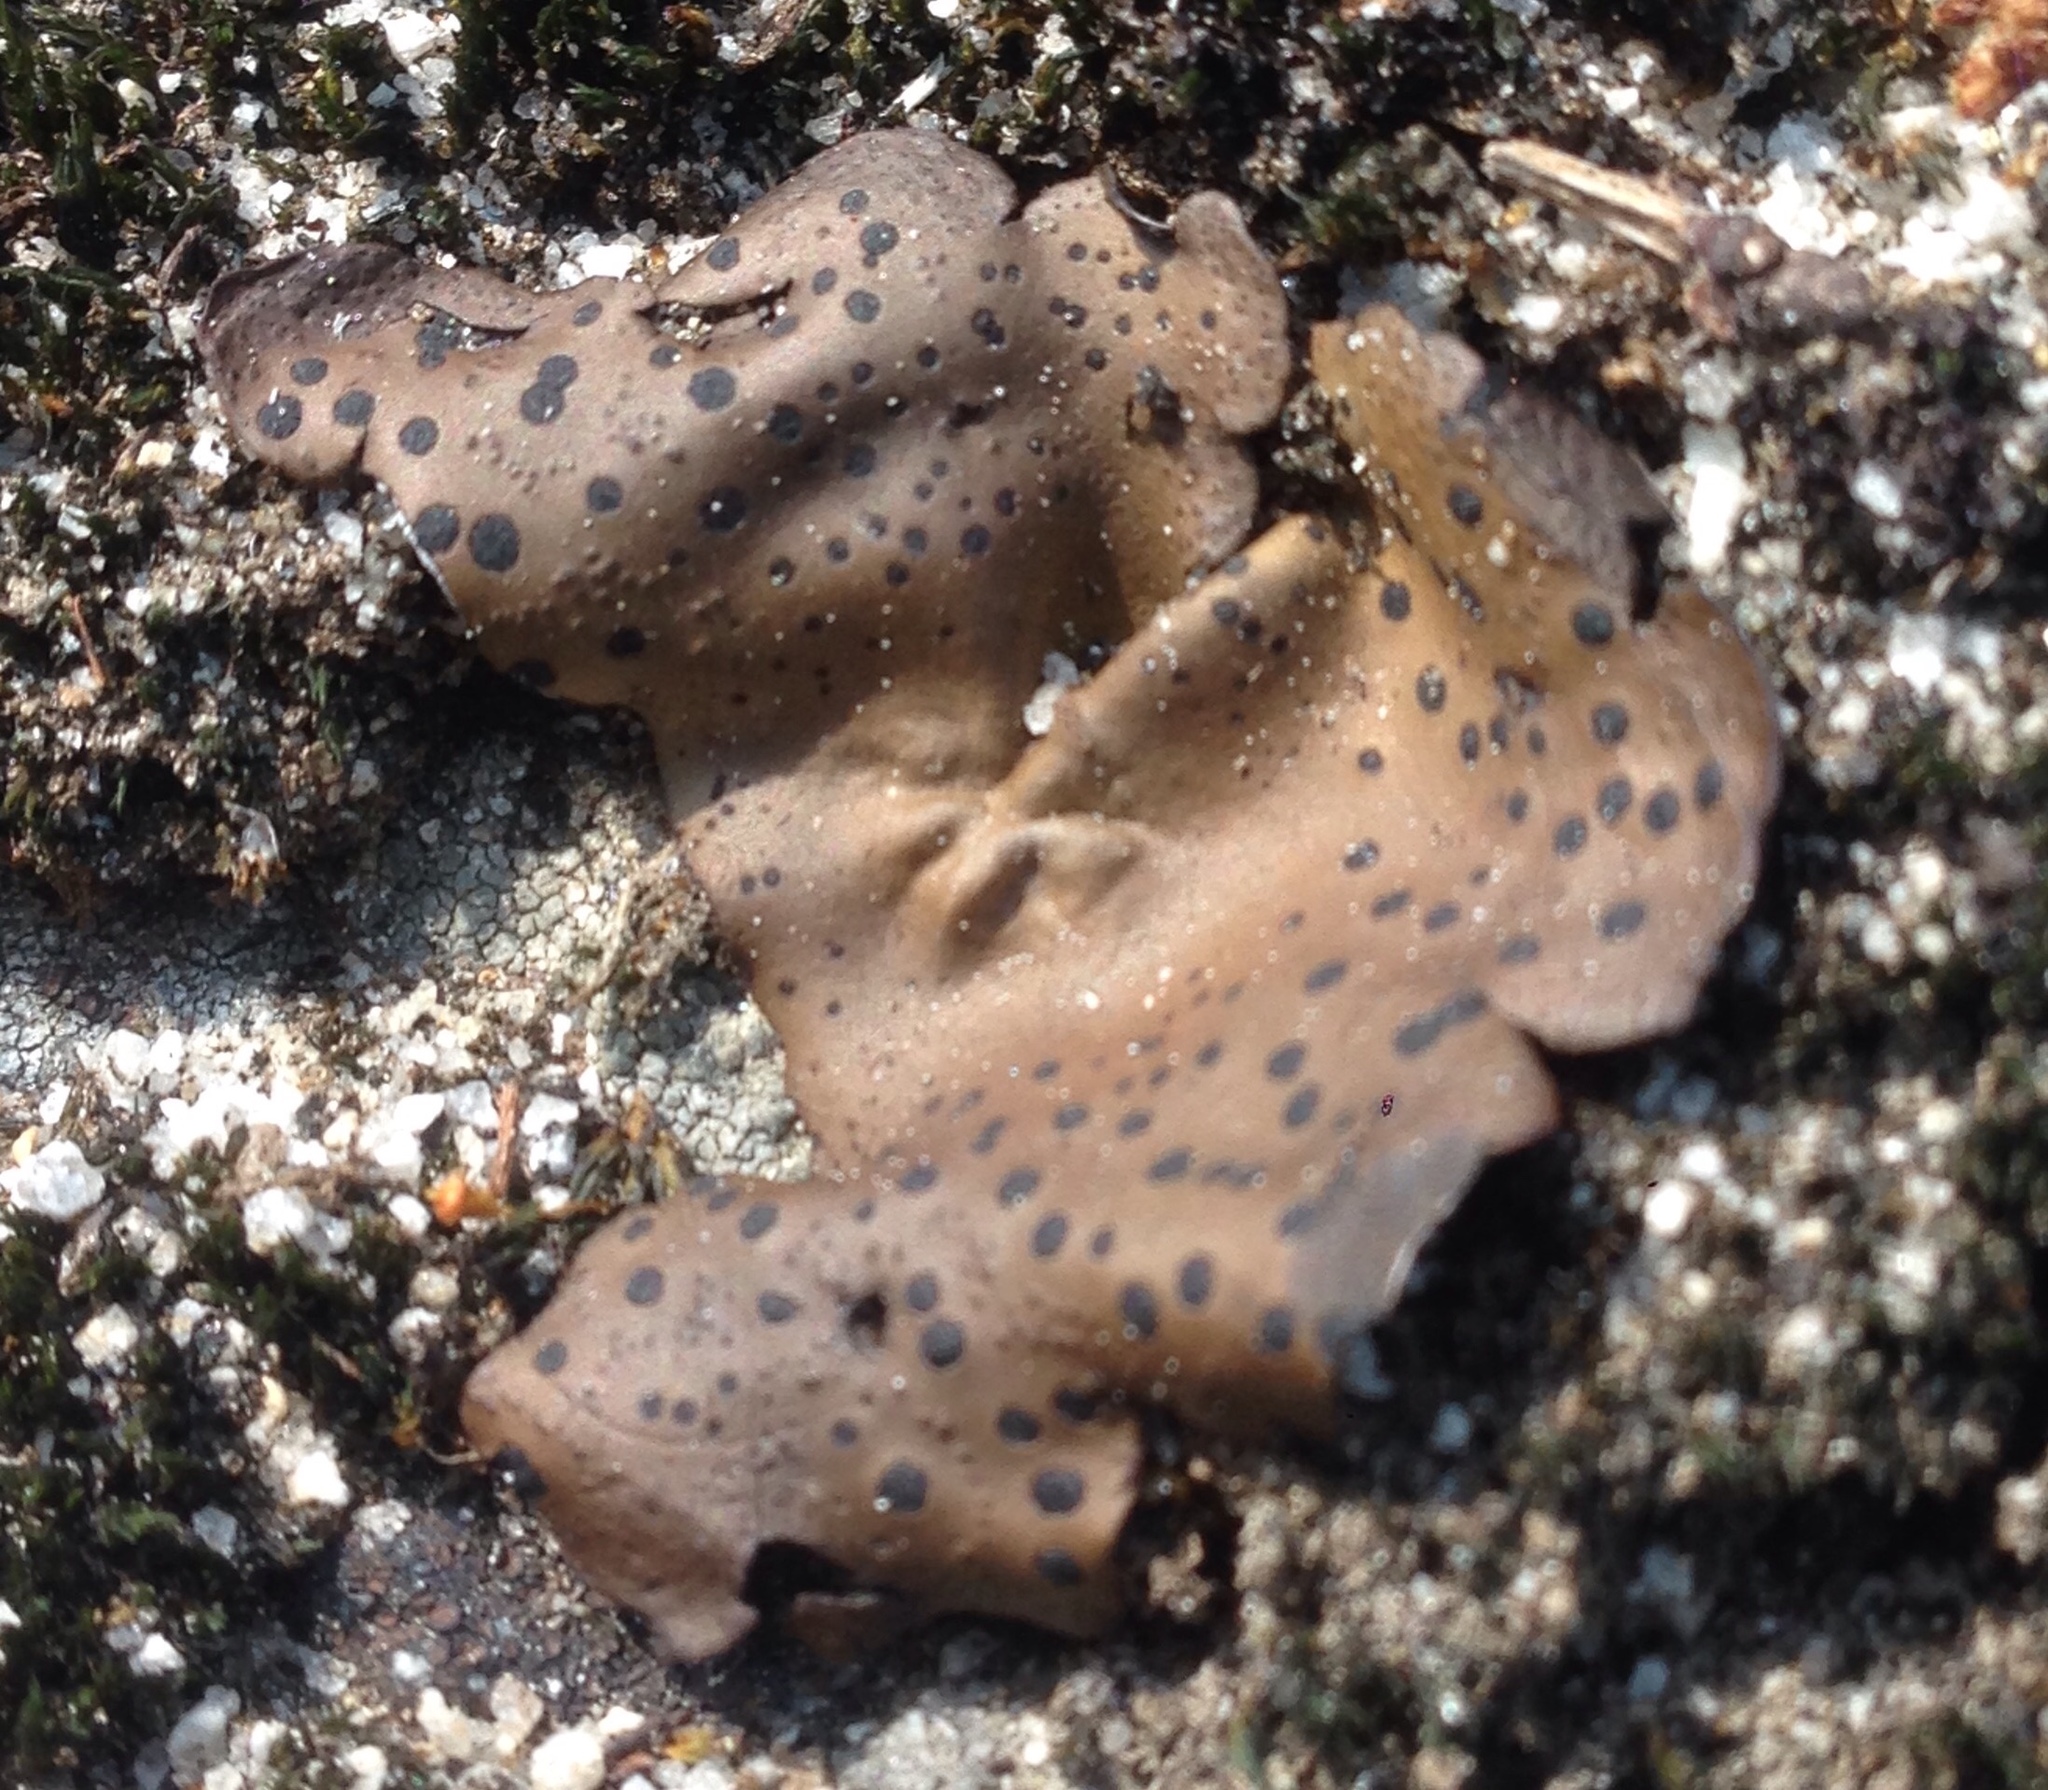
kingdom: Fungi
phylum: Ascomycota
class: Lecanoromycetes
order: Umbilicariales
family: Umbilicariaceae
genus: Umbilicaria
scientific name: Umbilicaria phaea
